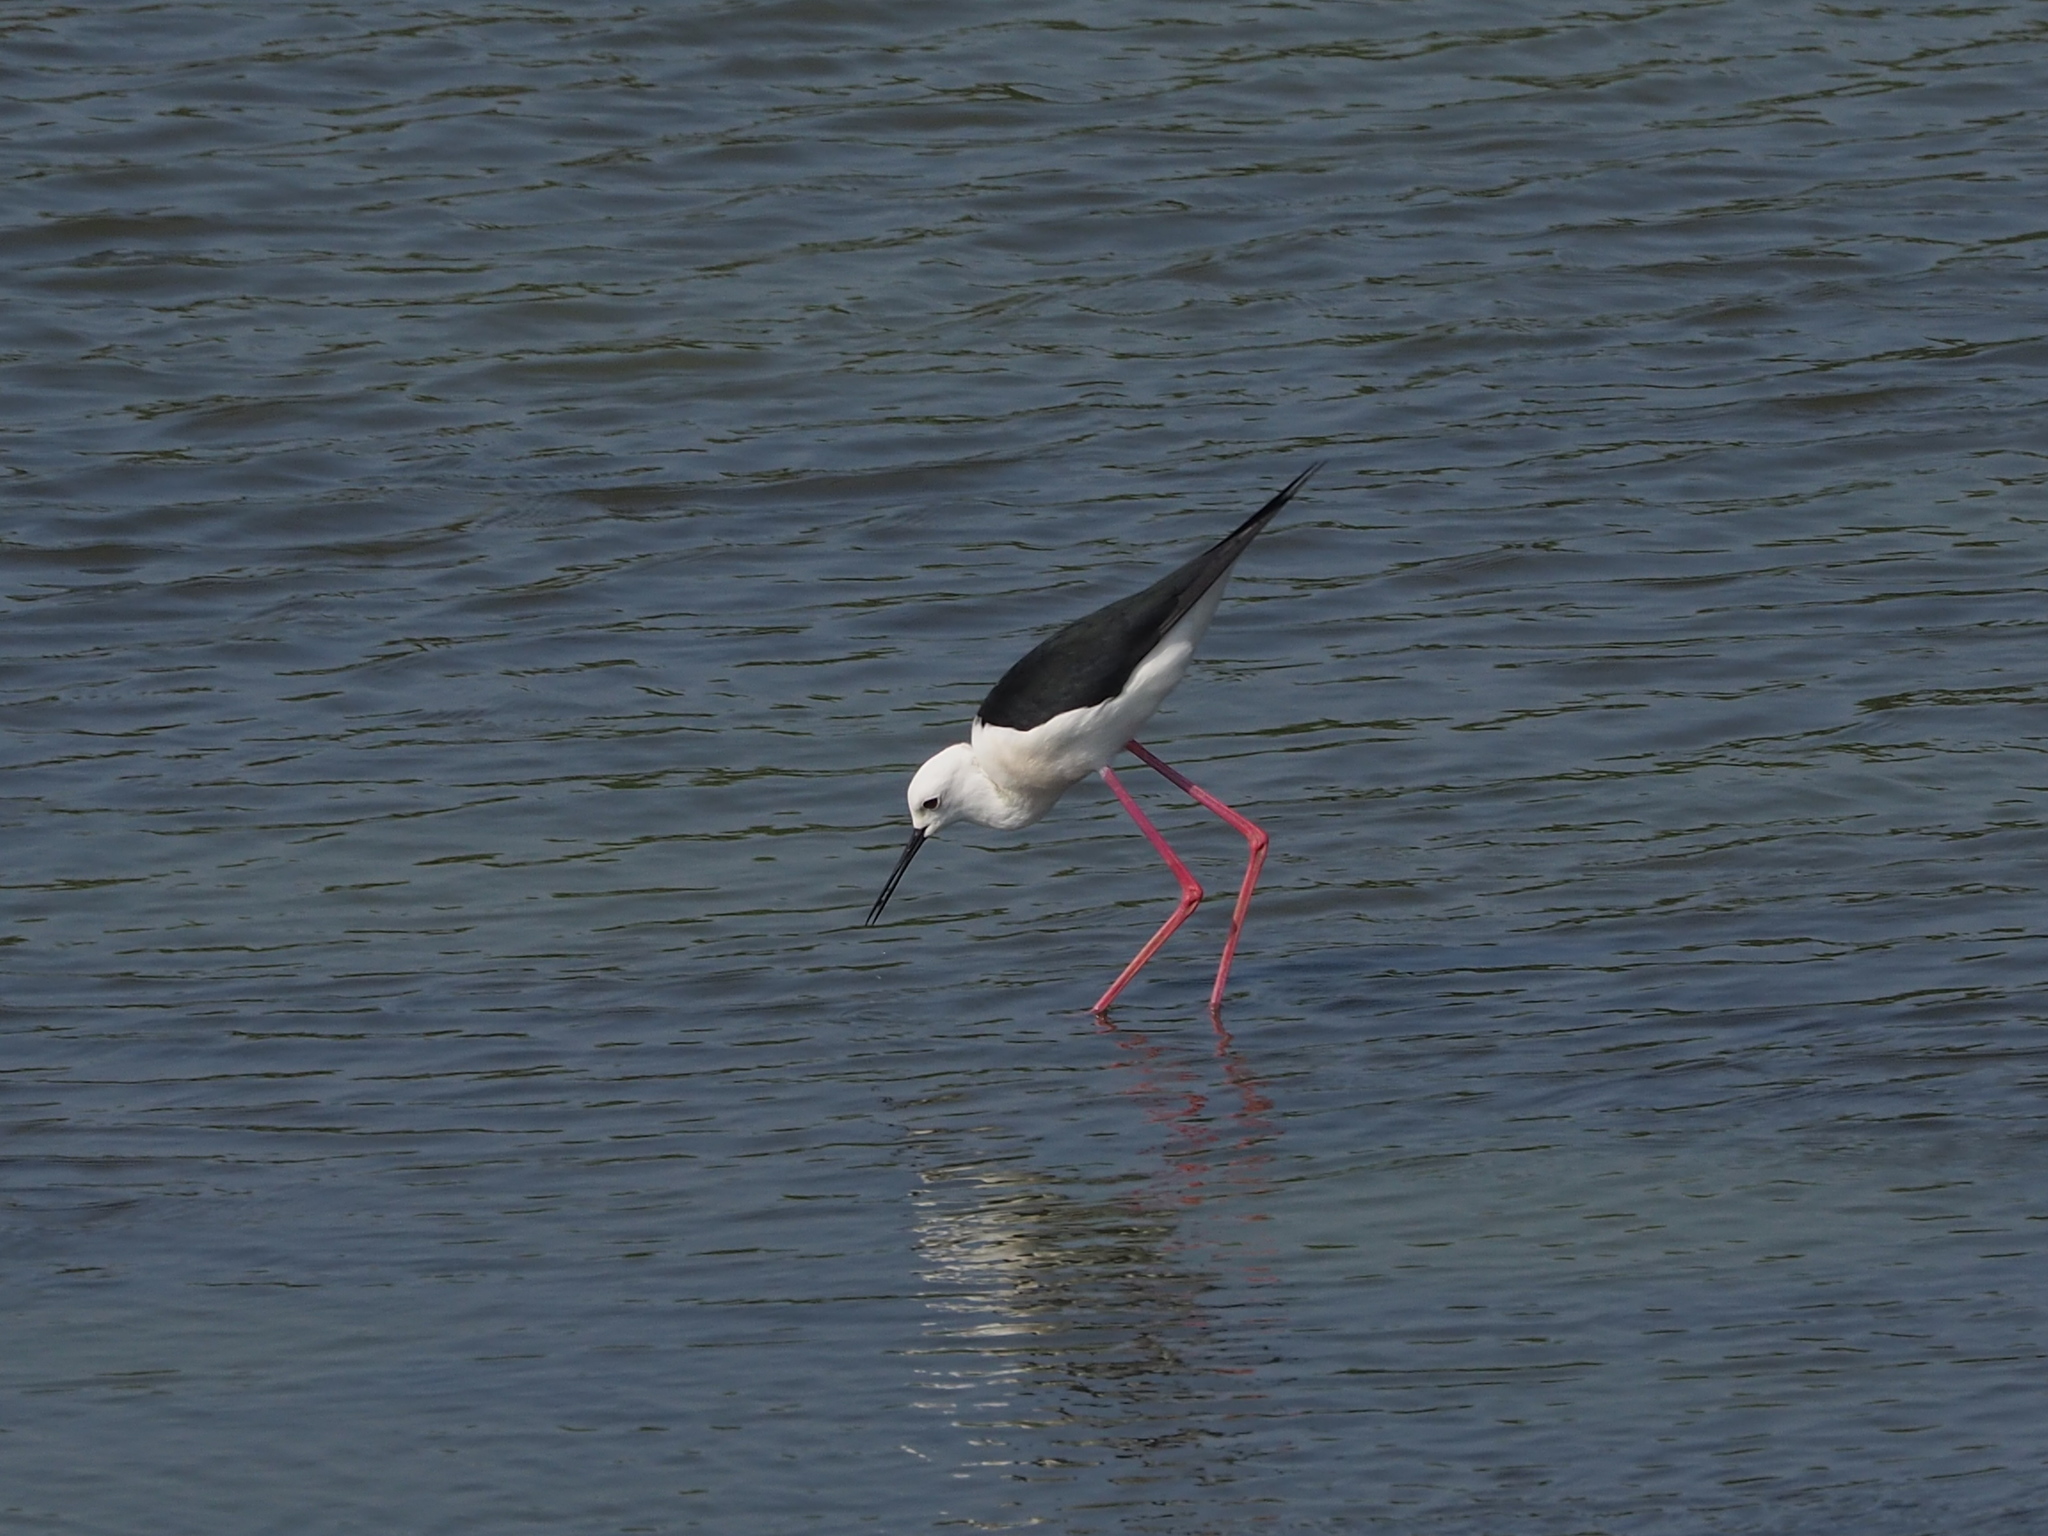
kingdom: Animalia
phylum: Chordata
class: Aves
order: Charadriiformes
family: Recurvirostridae
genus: Himantopus
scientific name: Himantopus himantopus
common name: Black-winged stilt
